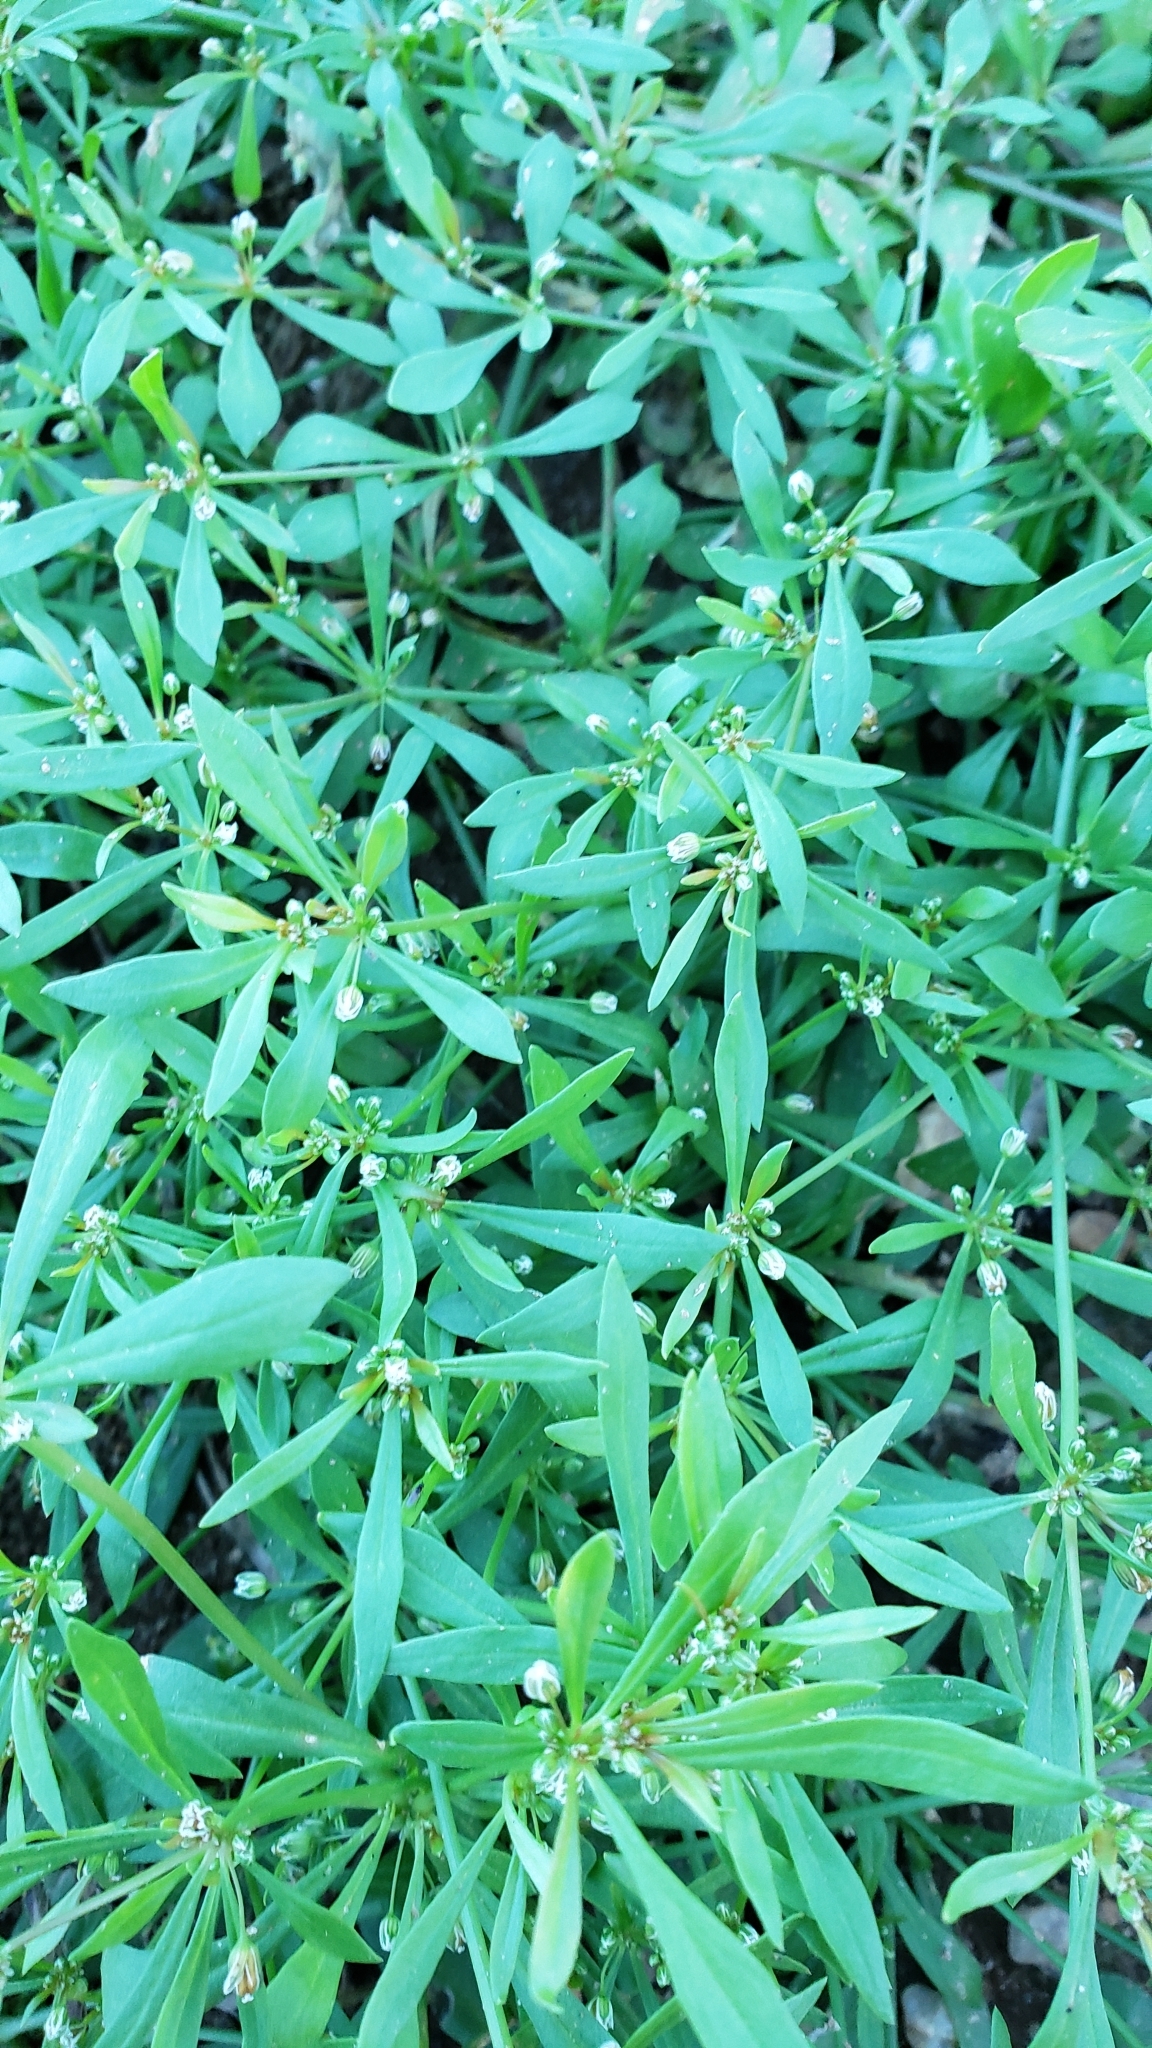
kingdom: Plantae
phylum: Tracheophyta
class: Magnoliopsida
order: Caryophyllales
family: Molluginaceae
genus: Mollugo
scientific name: Mollugo verticillata
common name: Green carpetweed
